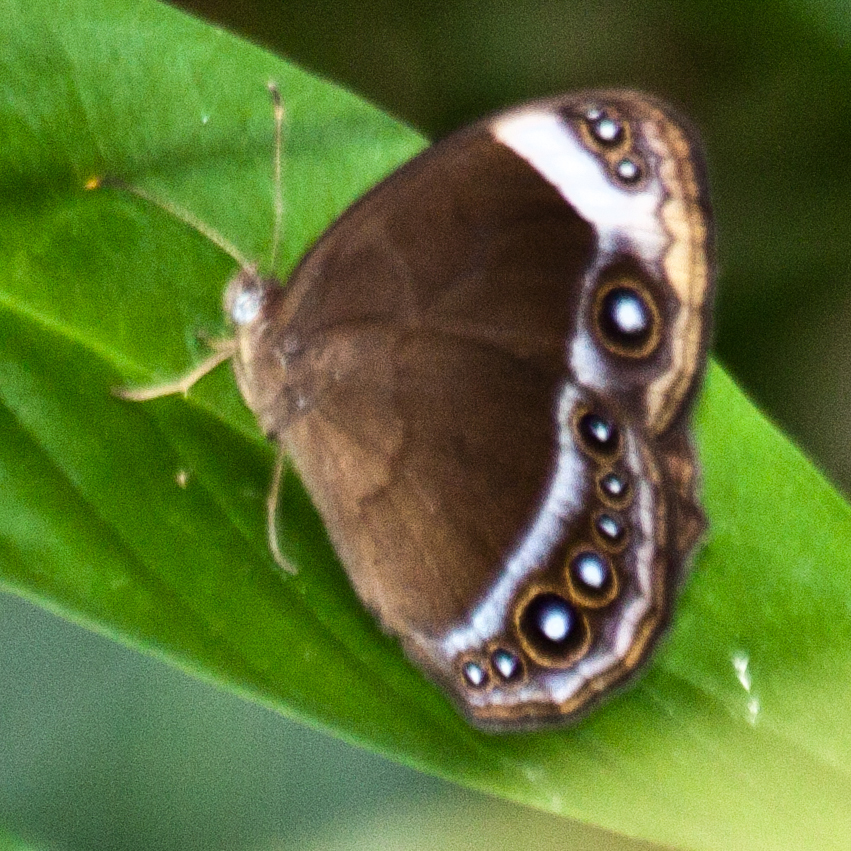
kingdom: Animalia
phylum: Arthropoda
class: Insecta
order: Lepidoptera
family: Nymphalidae
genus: Mycalesis
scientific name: Mycalesis anaxioides
